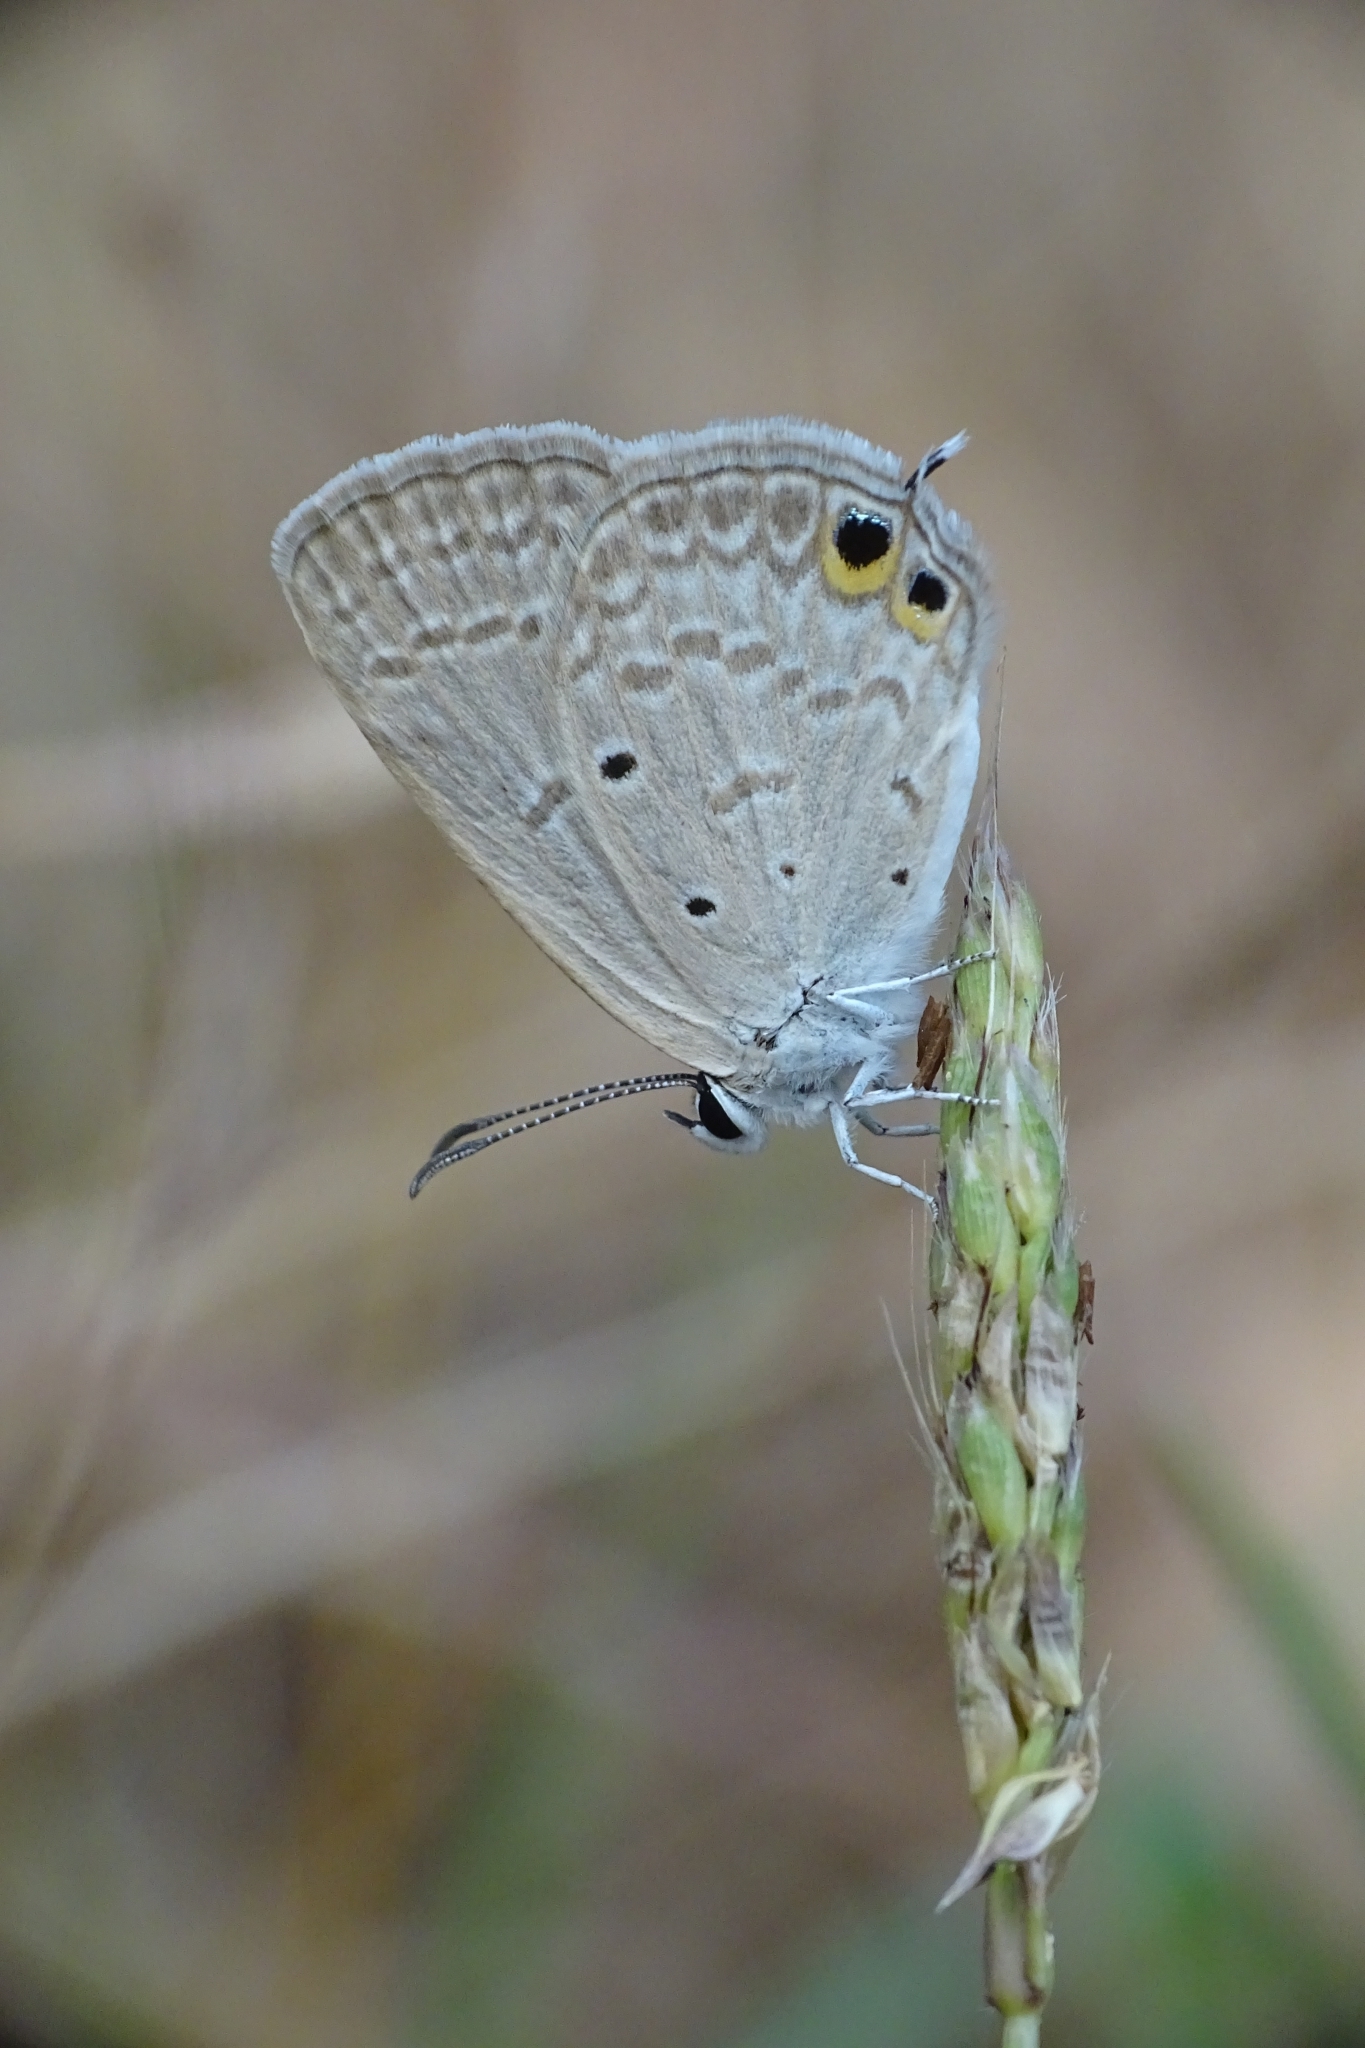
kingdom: Animalia
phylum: Arthropoda
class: Insecta
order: Lepidoptera
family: Lycaenidae
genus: Euchrysops
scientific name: Euchrysops cnejus
